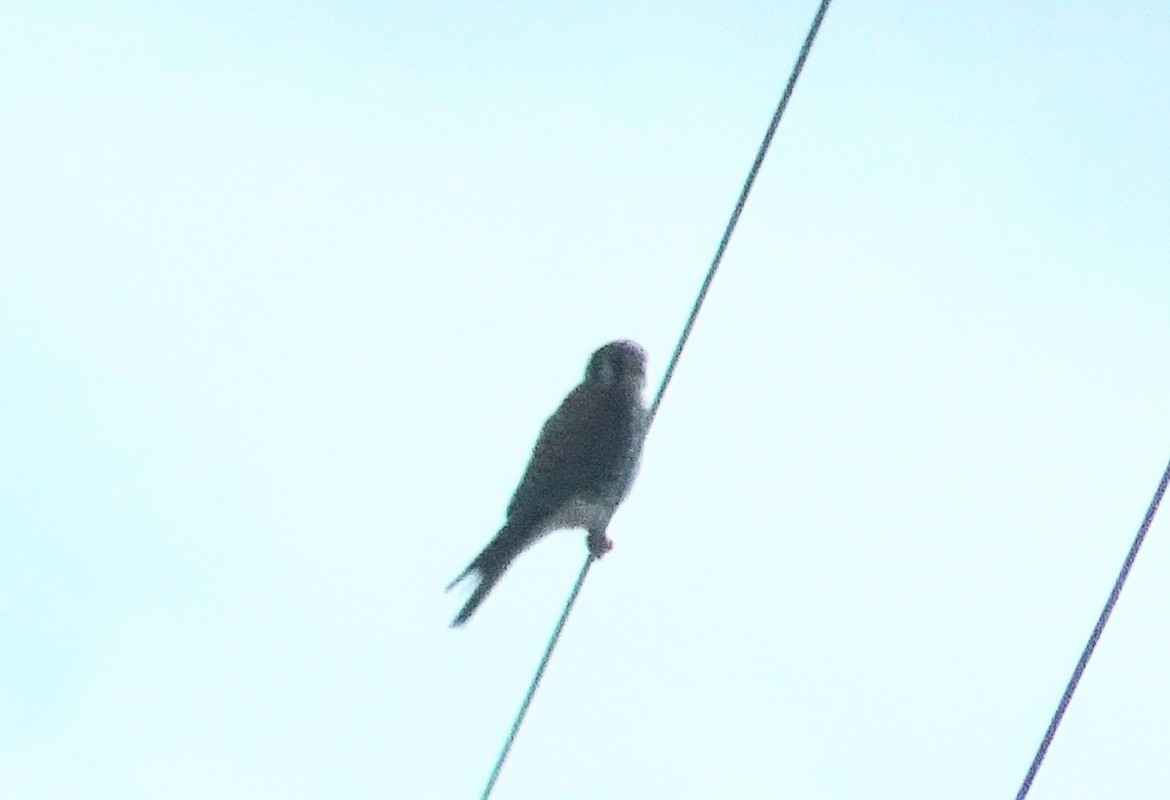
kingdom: Animalia
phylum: Chordata
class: Aves
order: Falconiformes
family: Falconidae
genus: Falco
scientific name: Falco sparverius
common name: American kestrel
